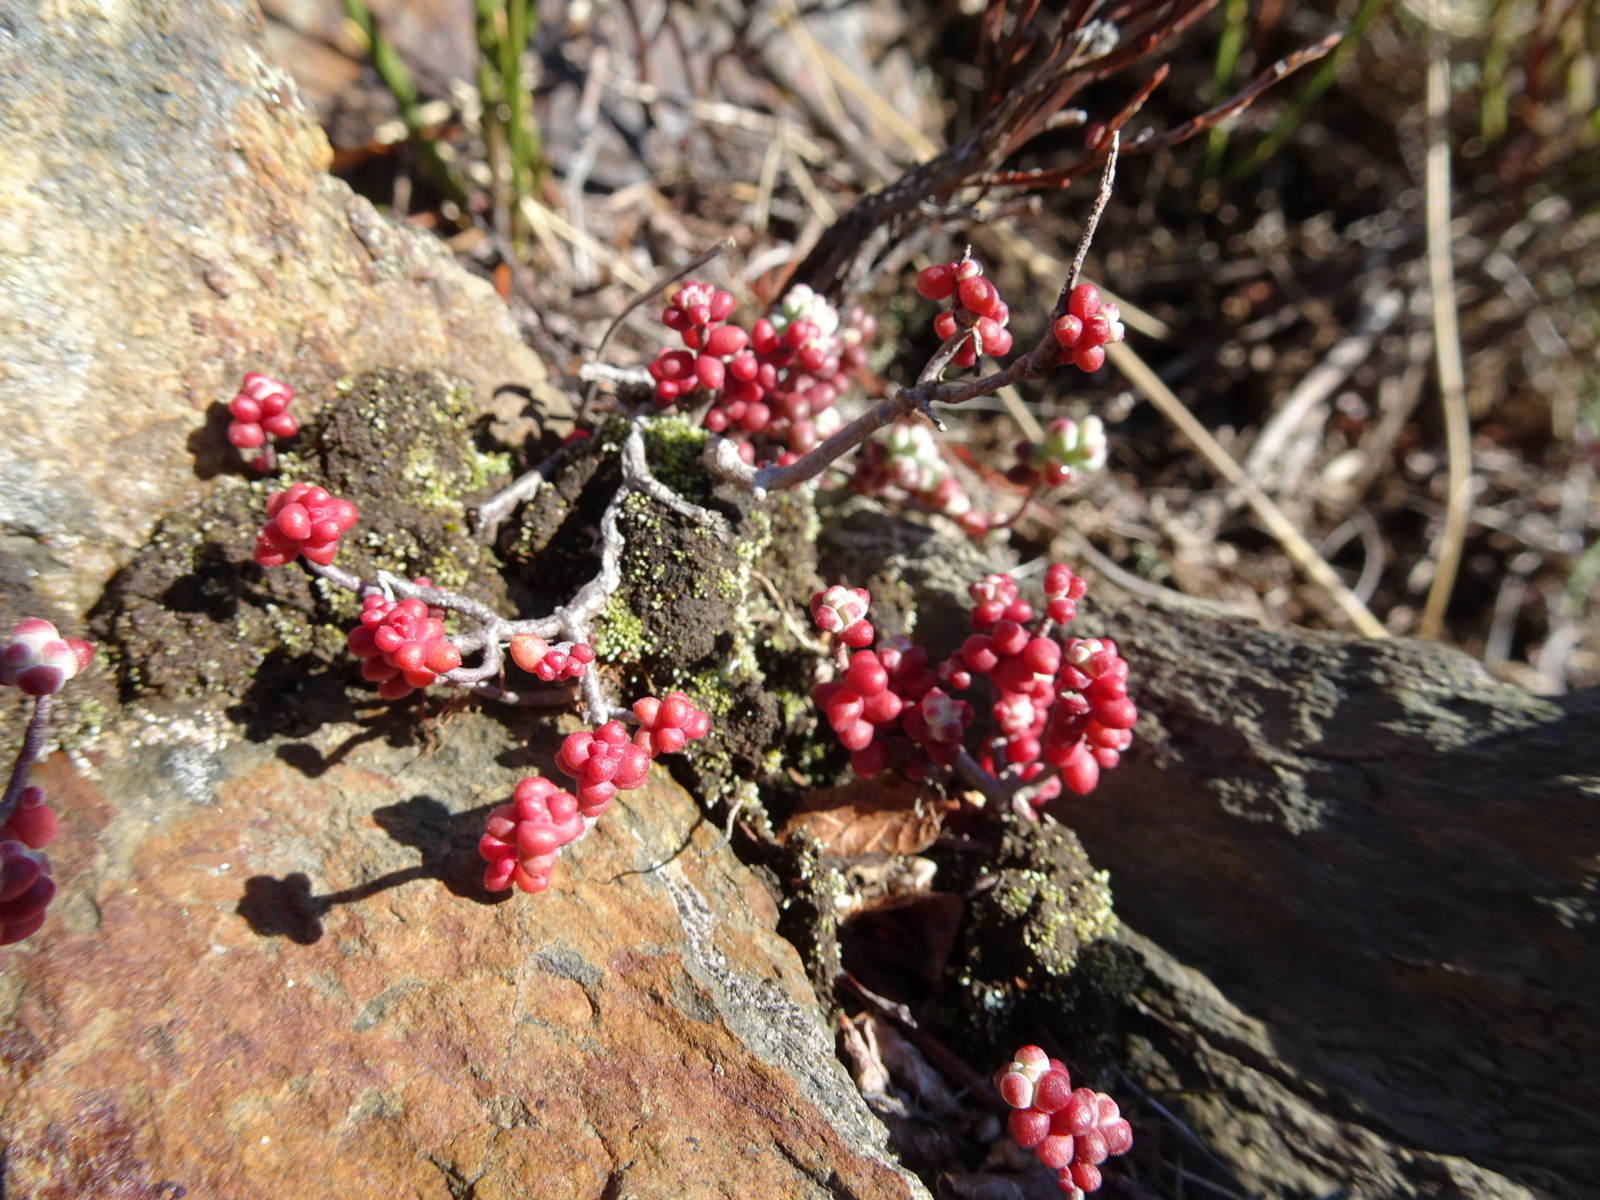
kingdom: Plantae
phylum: Tracheophyta
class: Magnoliopsida
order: Saxifragales
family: Crassulaceae
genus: Sedum
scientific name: Sedum brevifolium
